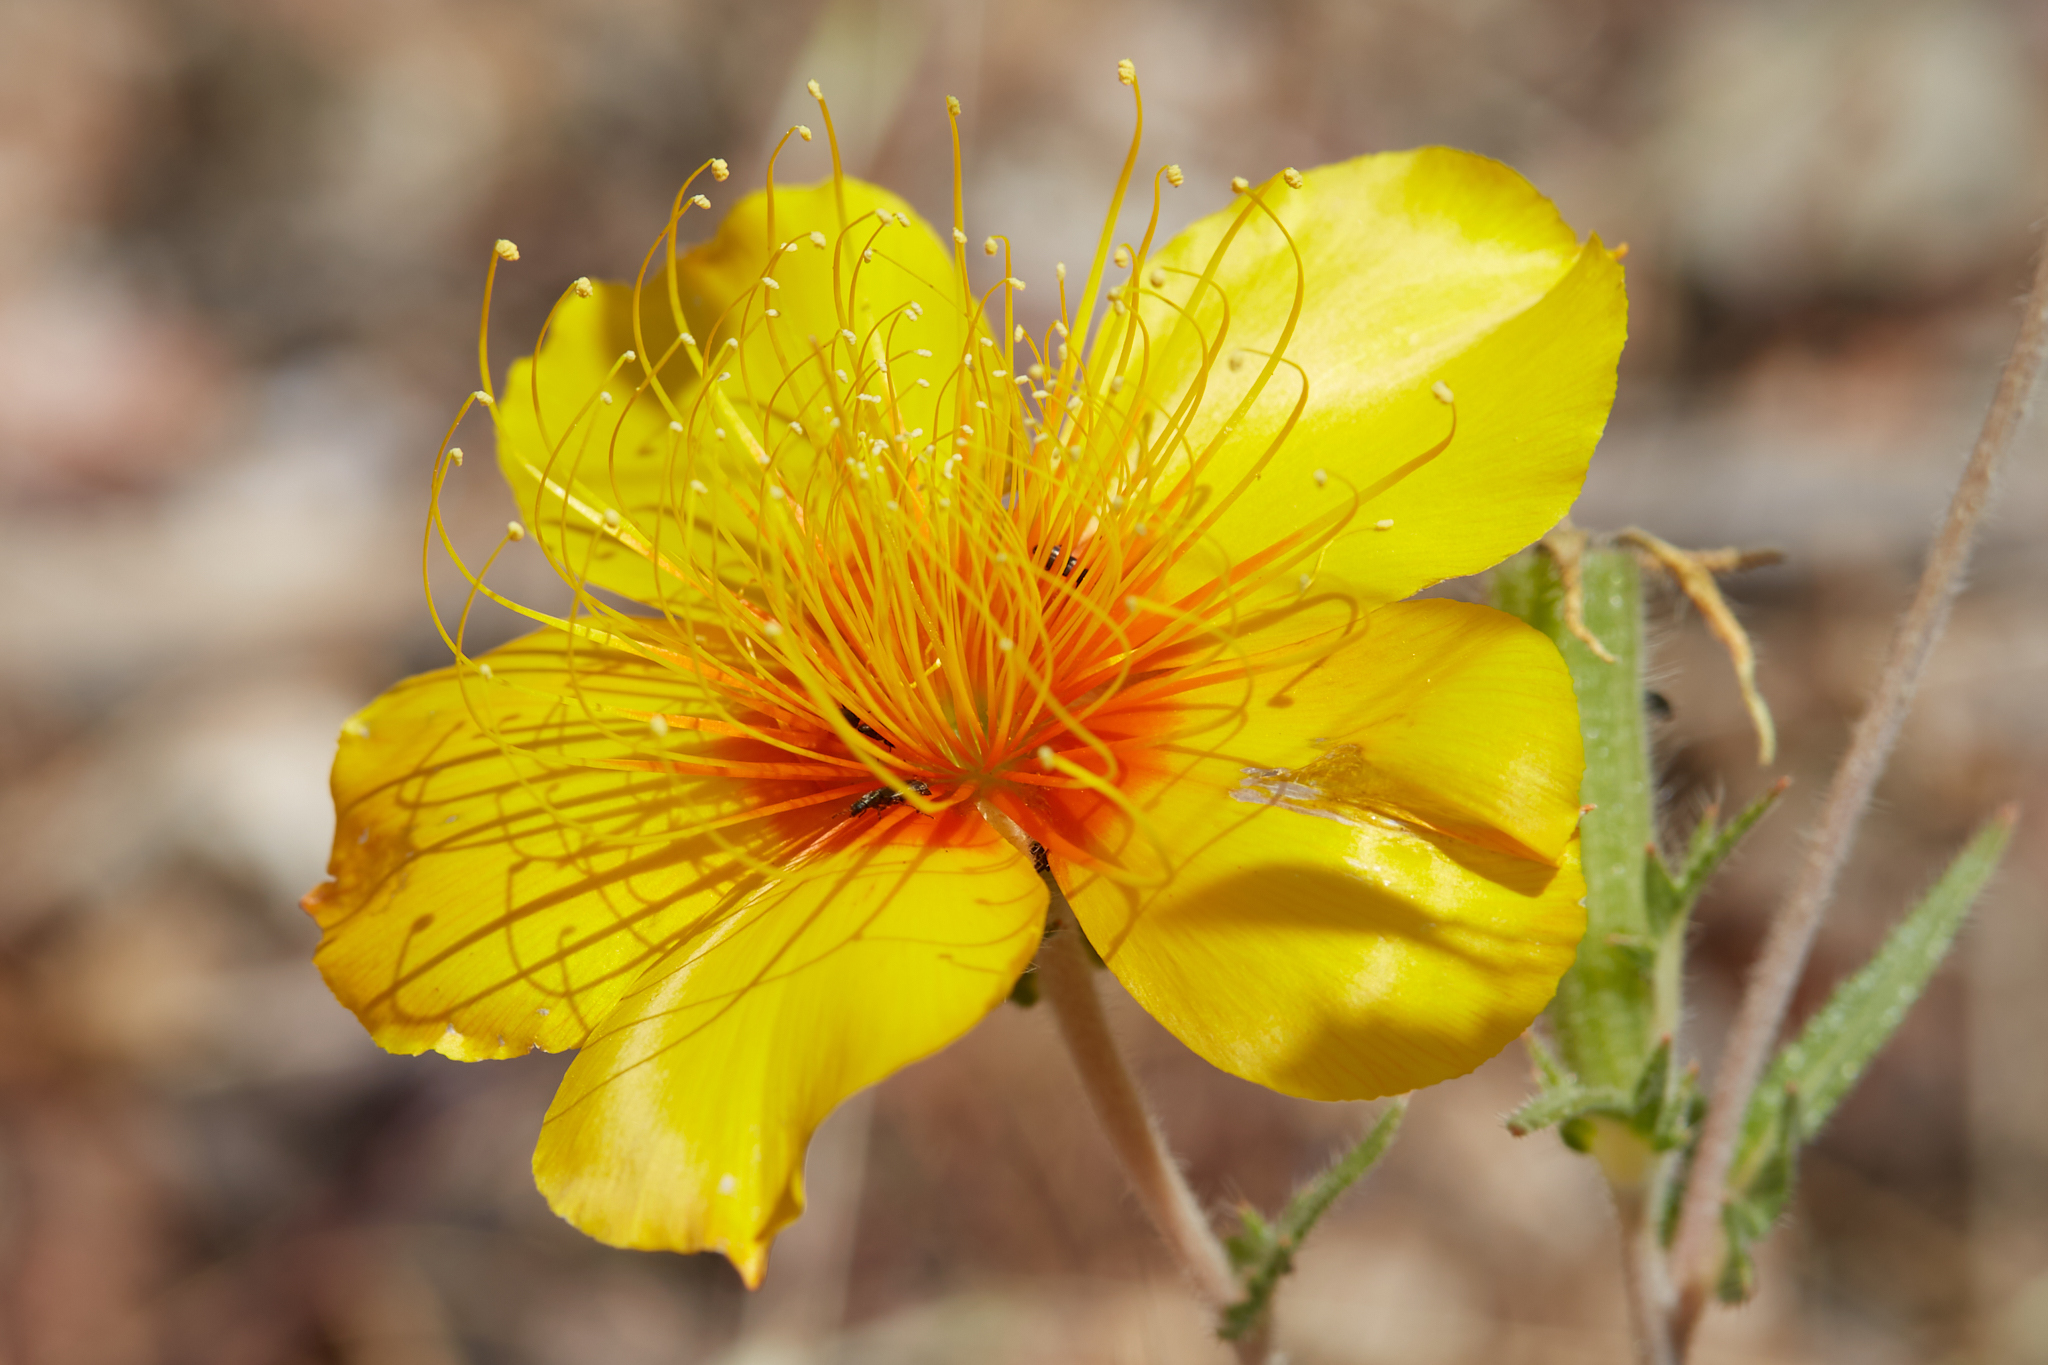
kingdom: Plantae
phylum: Tracheophyta
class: Magnoliopsida
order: Cornales
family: Loasaceae
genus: Mentzelia
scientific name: Mentzelia lindleyi
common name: Golden bartonia
